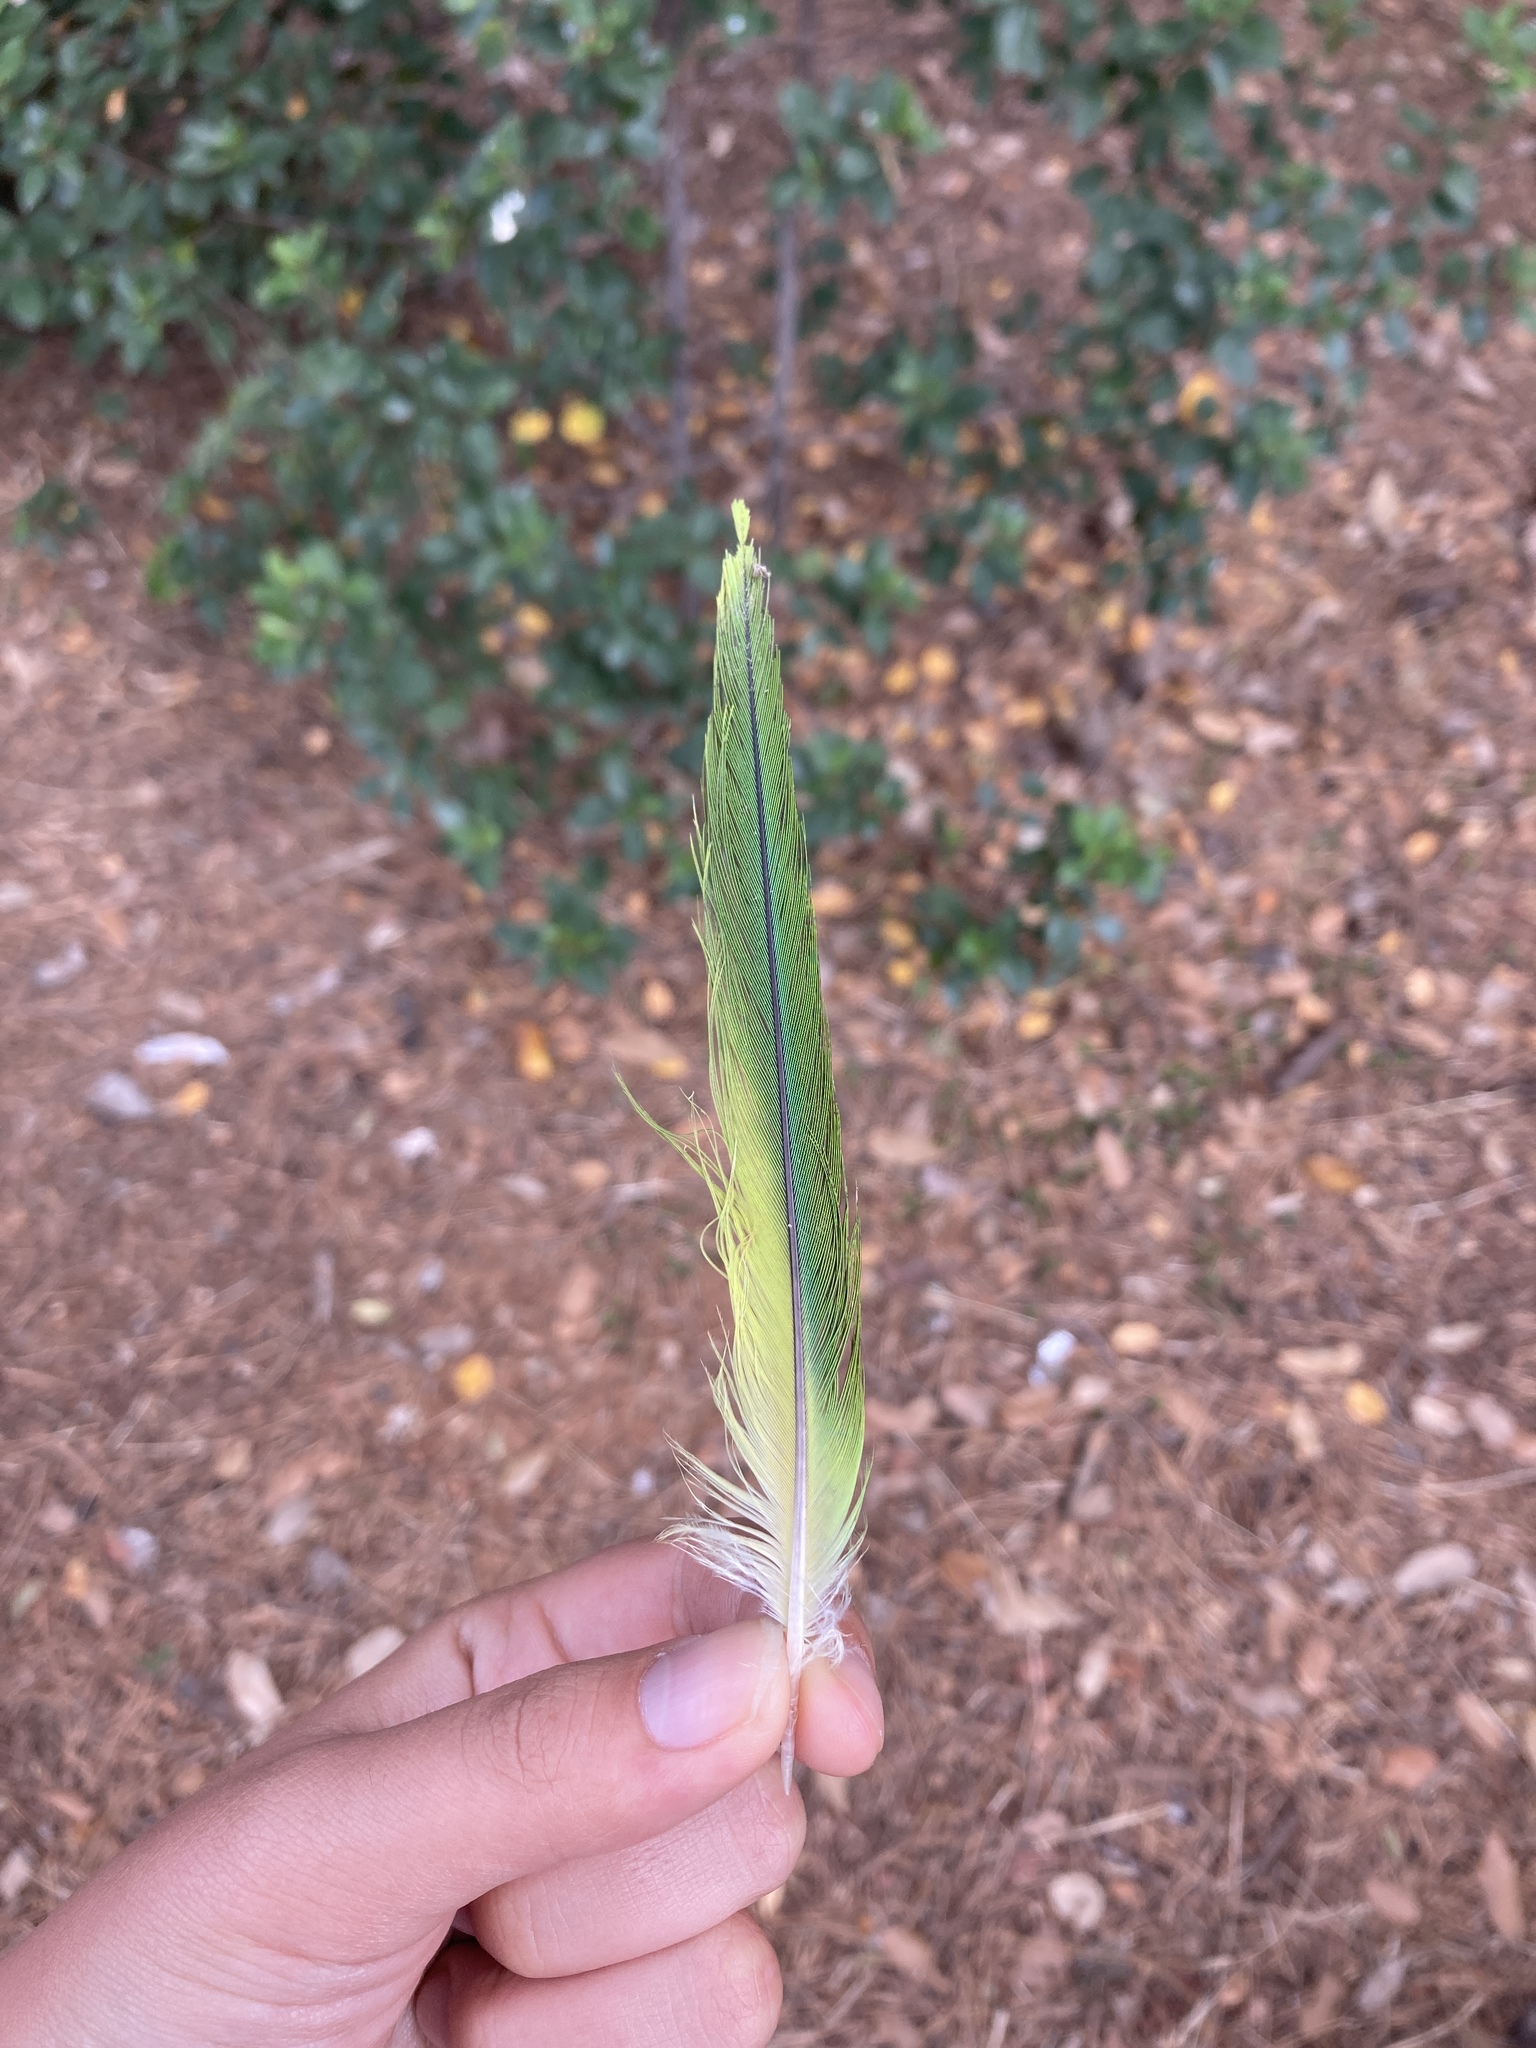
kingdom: Animalia
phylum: Chordata
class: Aves
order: Psittaciformes
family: Psittacidae
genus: Myiopsitta
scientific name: Myiopsitta monachus
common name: Monk parakeet
